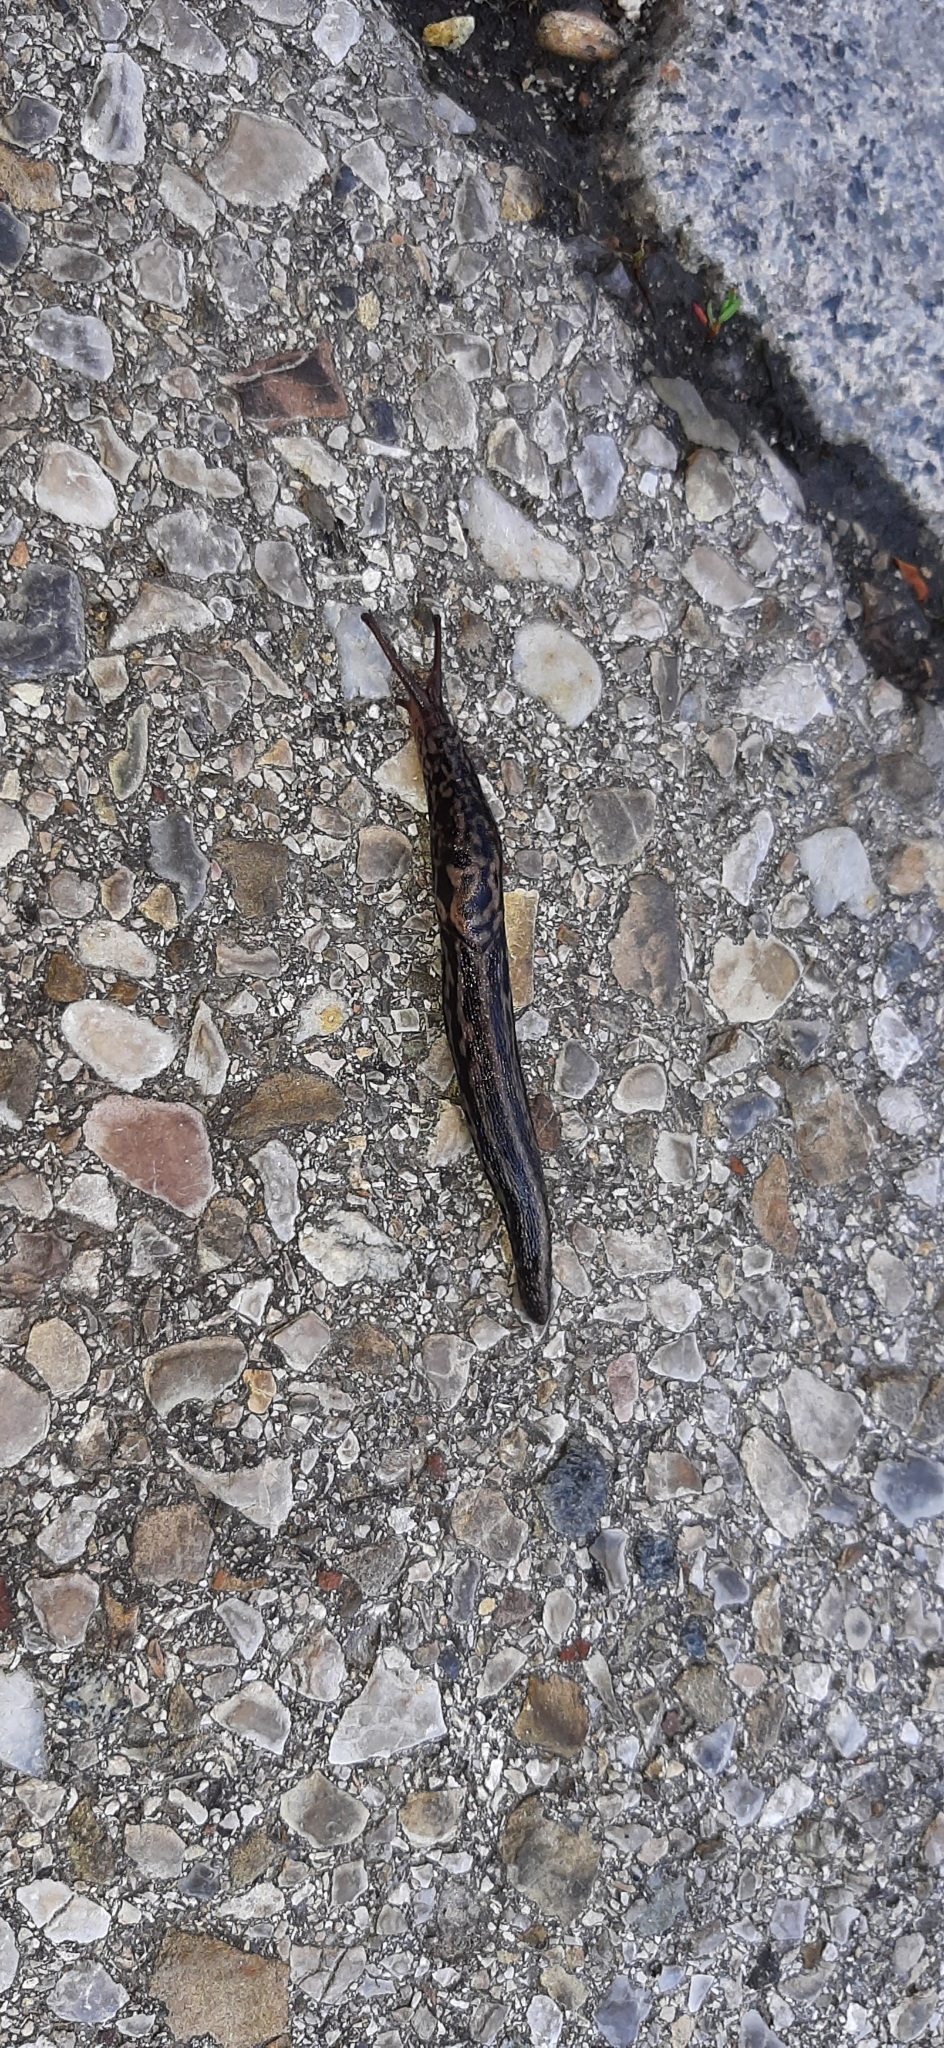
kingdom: Animalia
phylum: Mollusca
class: Gastropoda
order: Stylommatophora
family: Limacidae
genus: Limax
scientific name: Limax maximus
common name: Great grey slug
